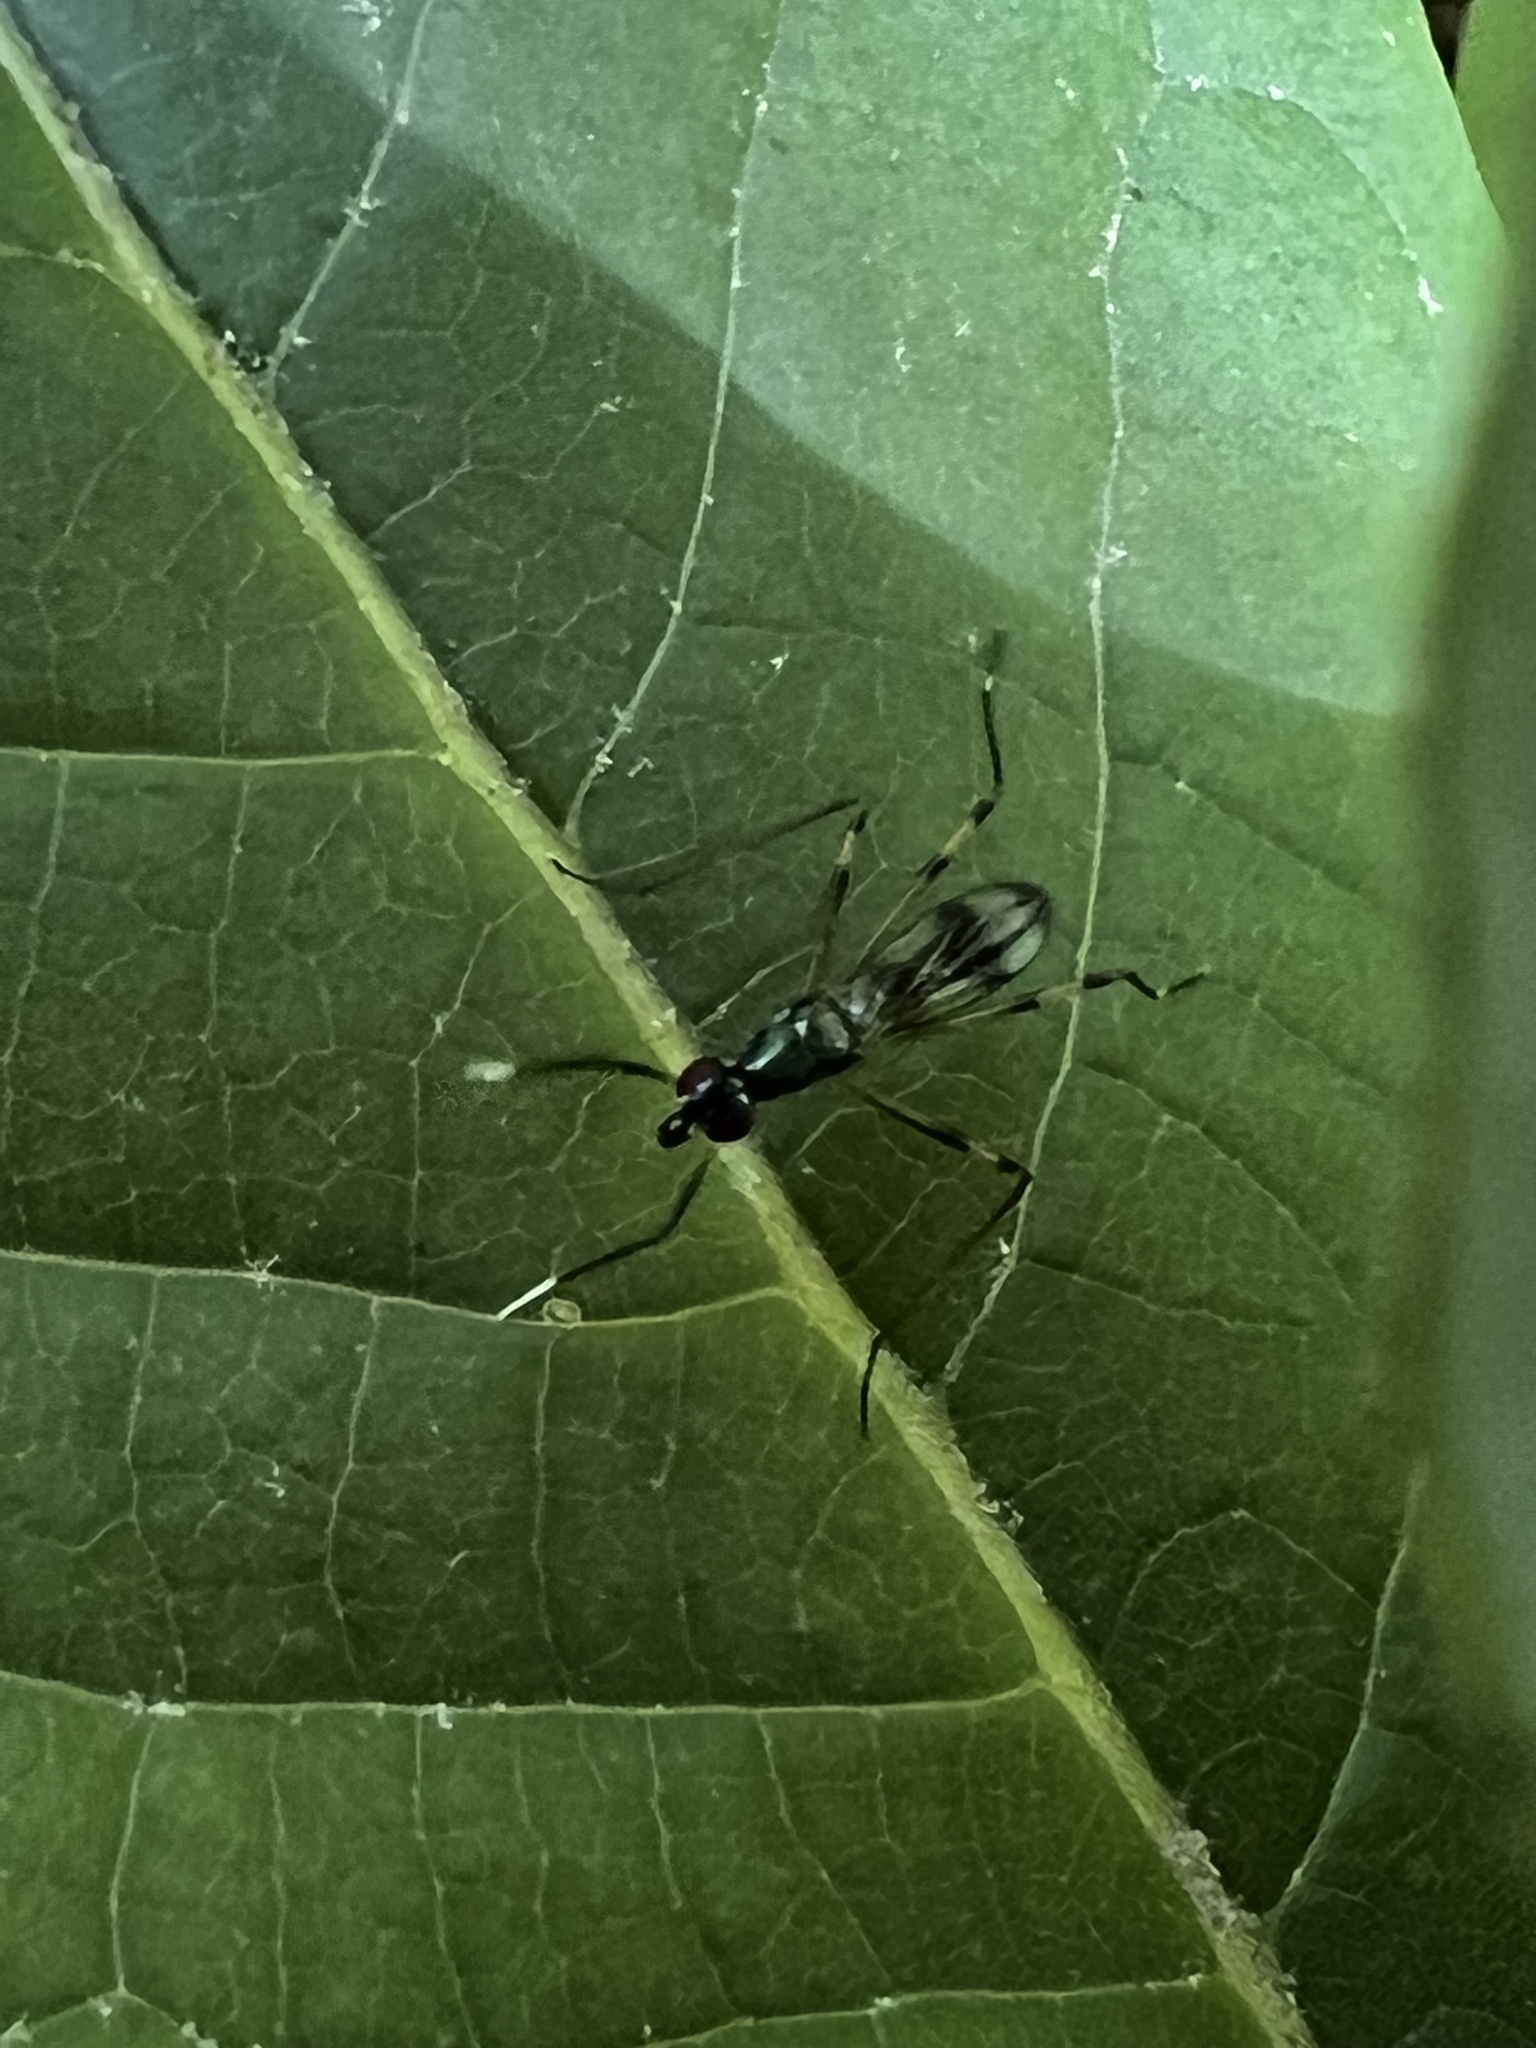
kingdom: Animalia
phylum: Arthropoda
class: Insecta
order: Diptera
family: Micropezidae
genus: Rainieria
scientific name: Rainieria antennaepes
